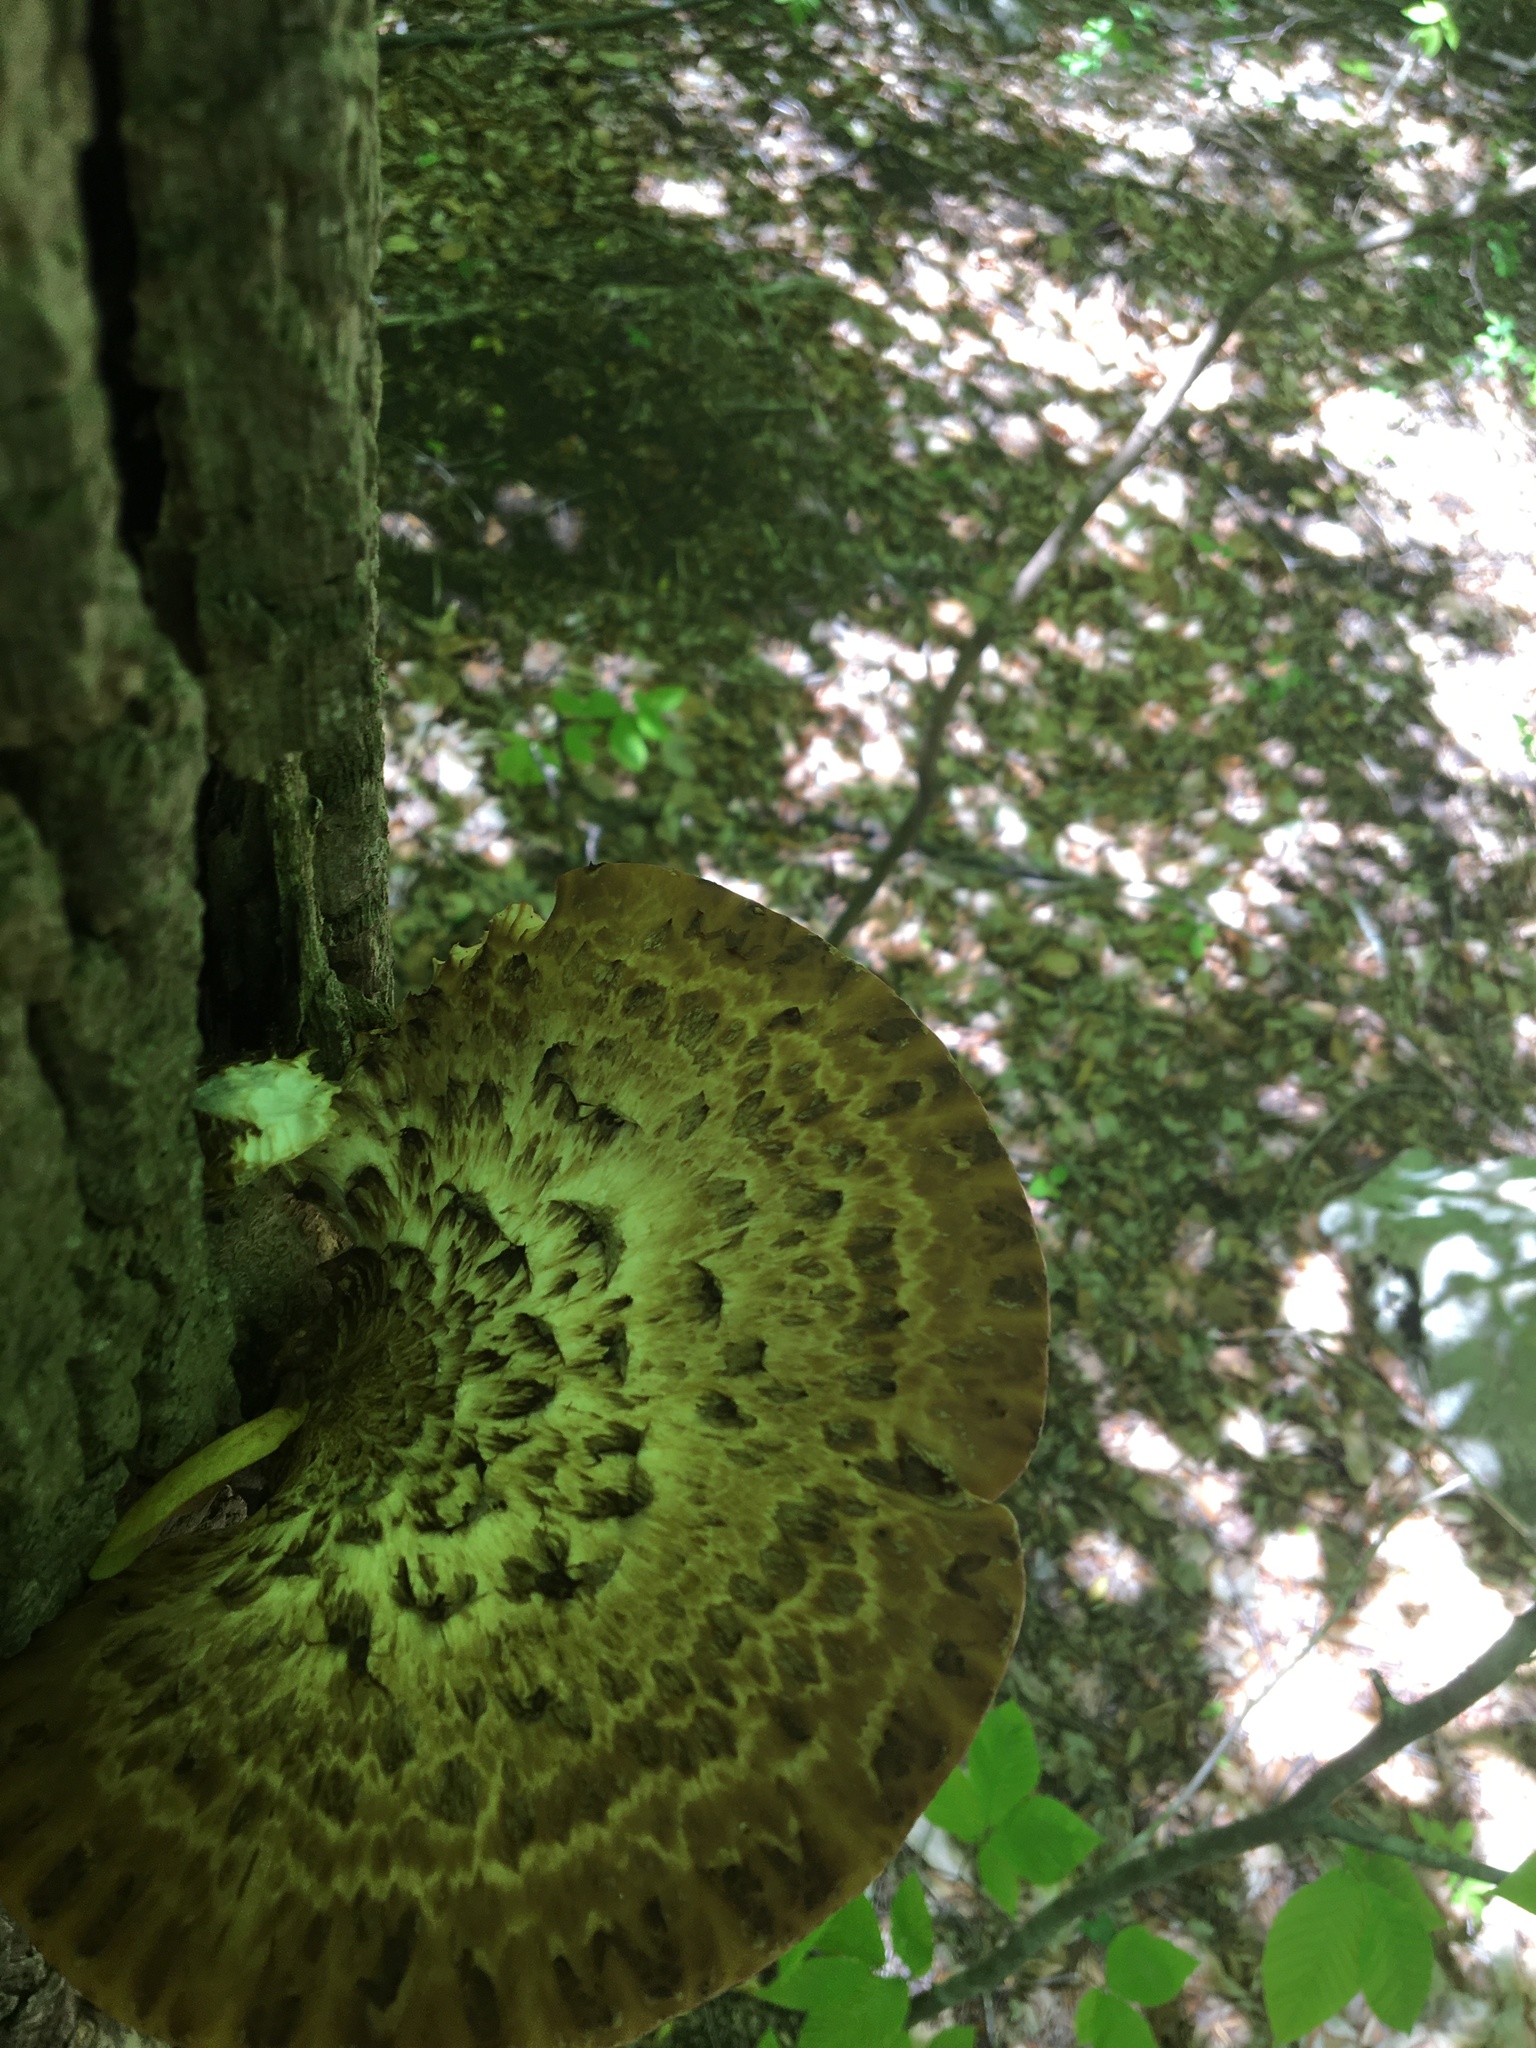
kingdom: Fungi
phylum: Basidiomycota
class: Agaricomycetes
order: Polyporales
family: Polyporaceae
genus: Cerioporus
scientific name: Cerioporus squamosus
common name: Dryad's saddle
